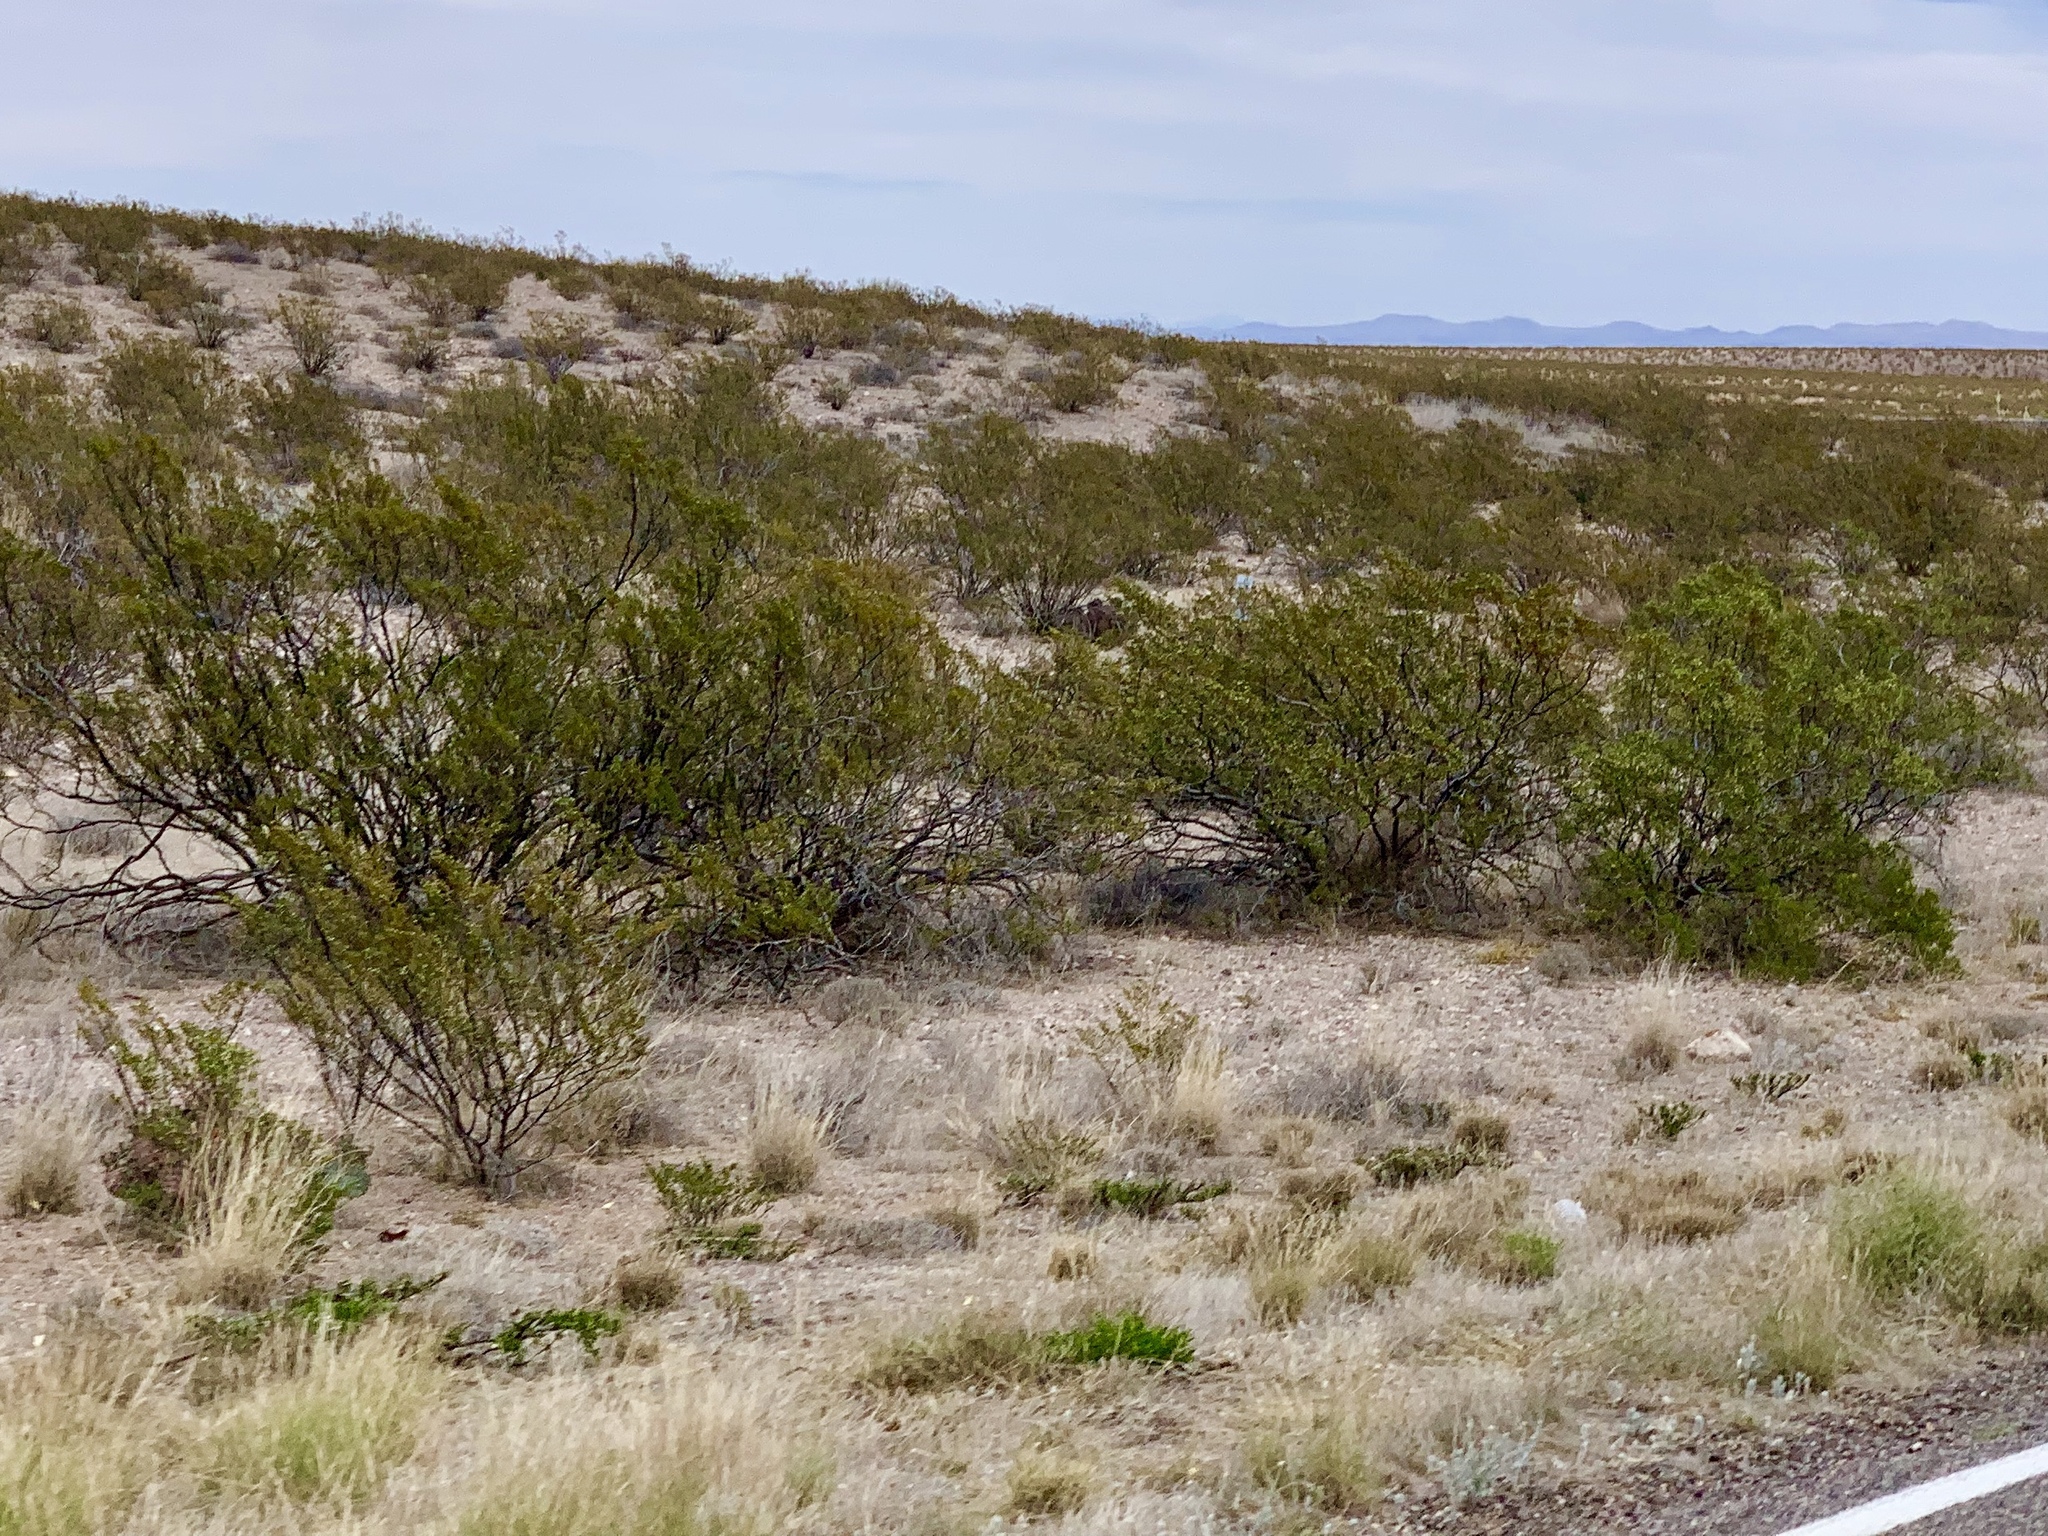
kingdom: Plantae
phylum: Tracheophyta
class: Magnoliopsida
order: Zygophyllales
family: Zygophyllaceae
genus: Larrea
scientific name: Larrea tridentata
